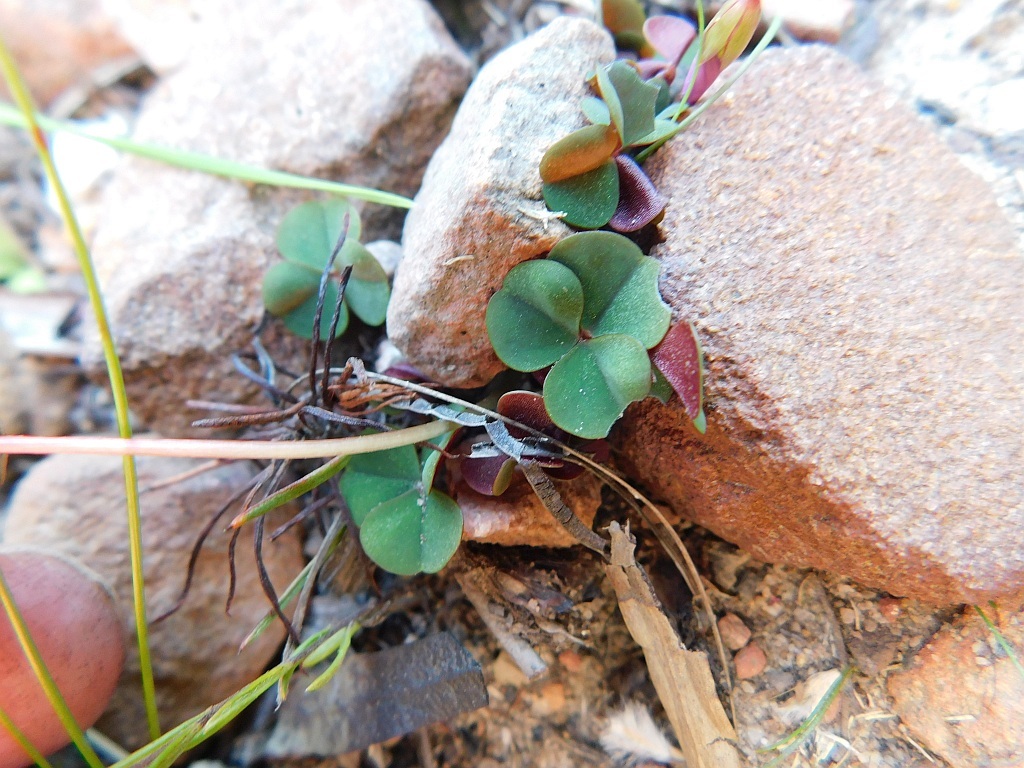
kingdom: Plantae
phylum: Tracheophyta
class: Magnoliopsida
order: Oxalidales
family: Oxalidaceae
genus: Oxalis
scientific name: Oxalis commutata
